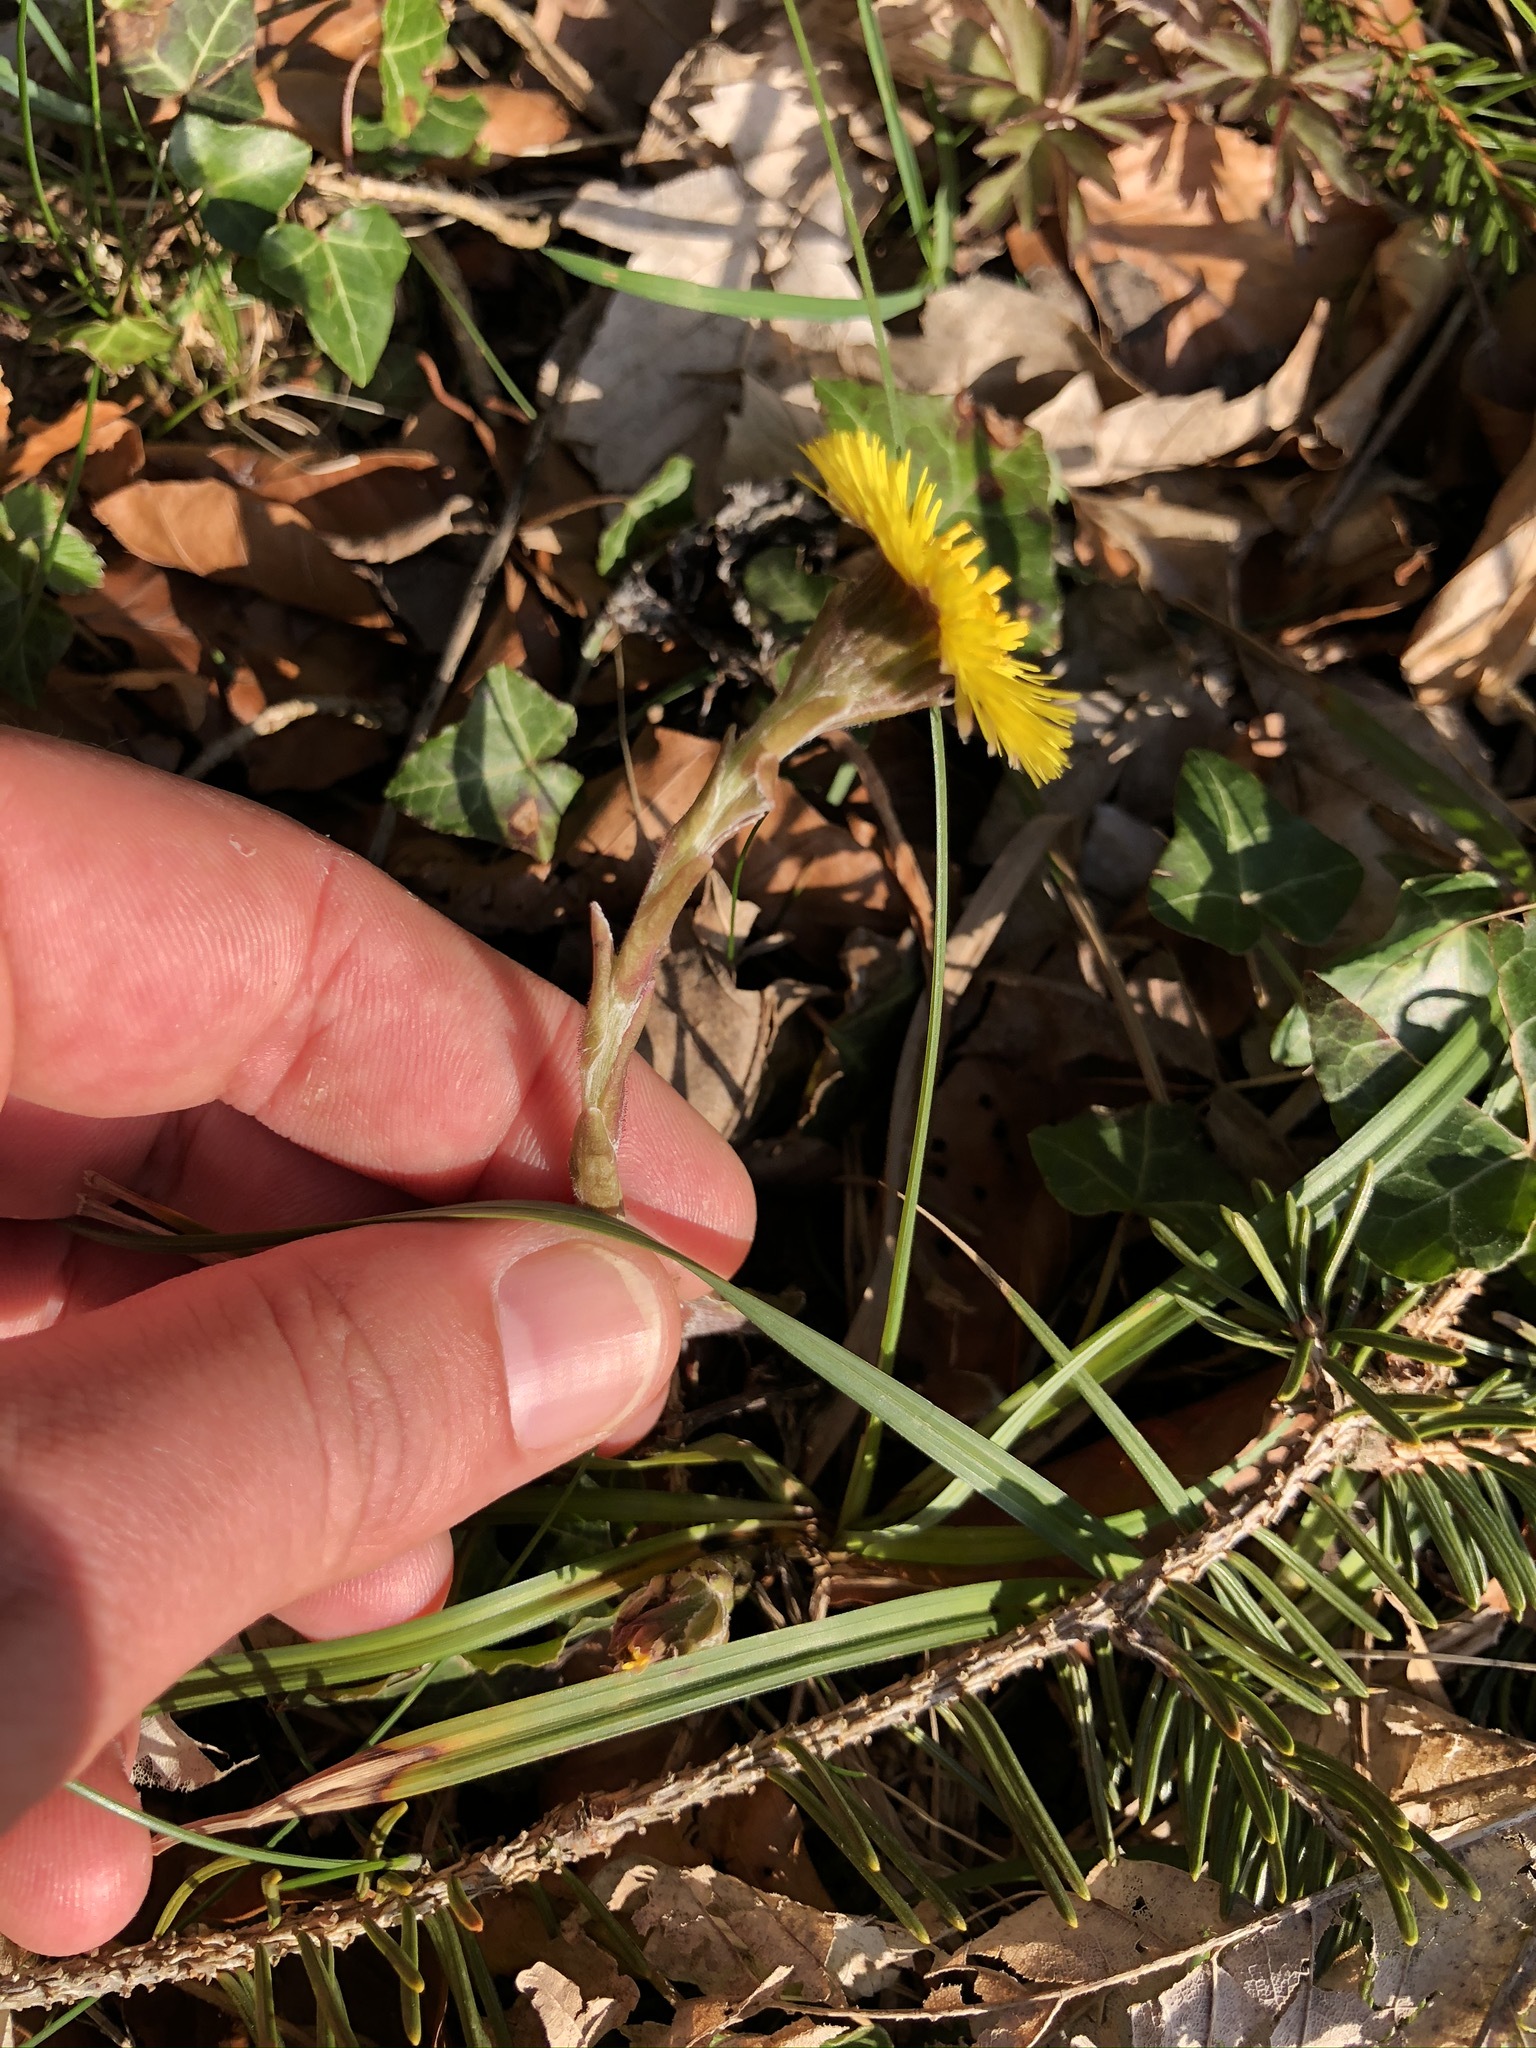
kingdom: Plantae
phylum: Tracheophyta
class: Magnoliopsida
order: Asterales
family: Asteraceae
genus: Tussilago
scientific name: Tussilago farfara
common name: Coltsfoot
